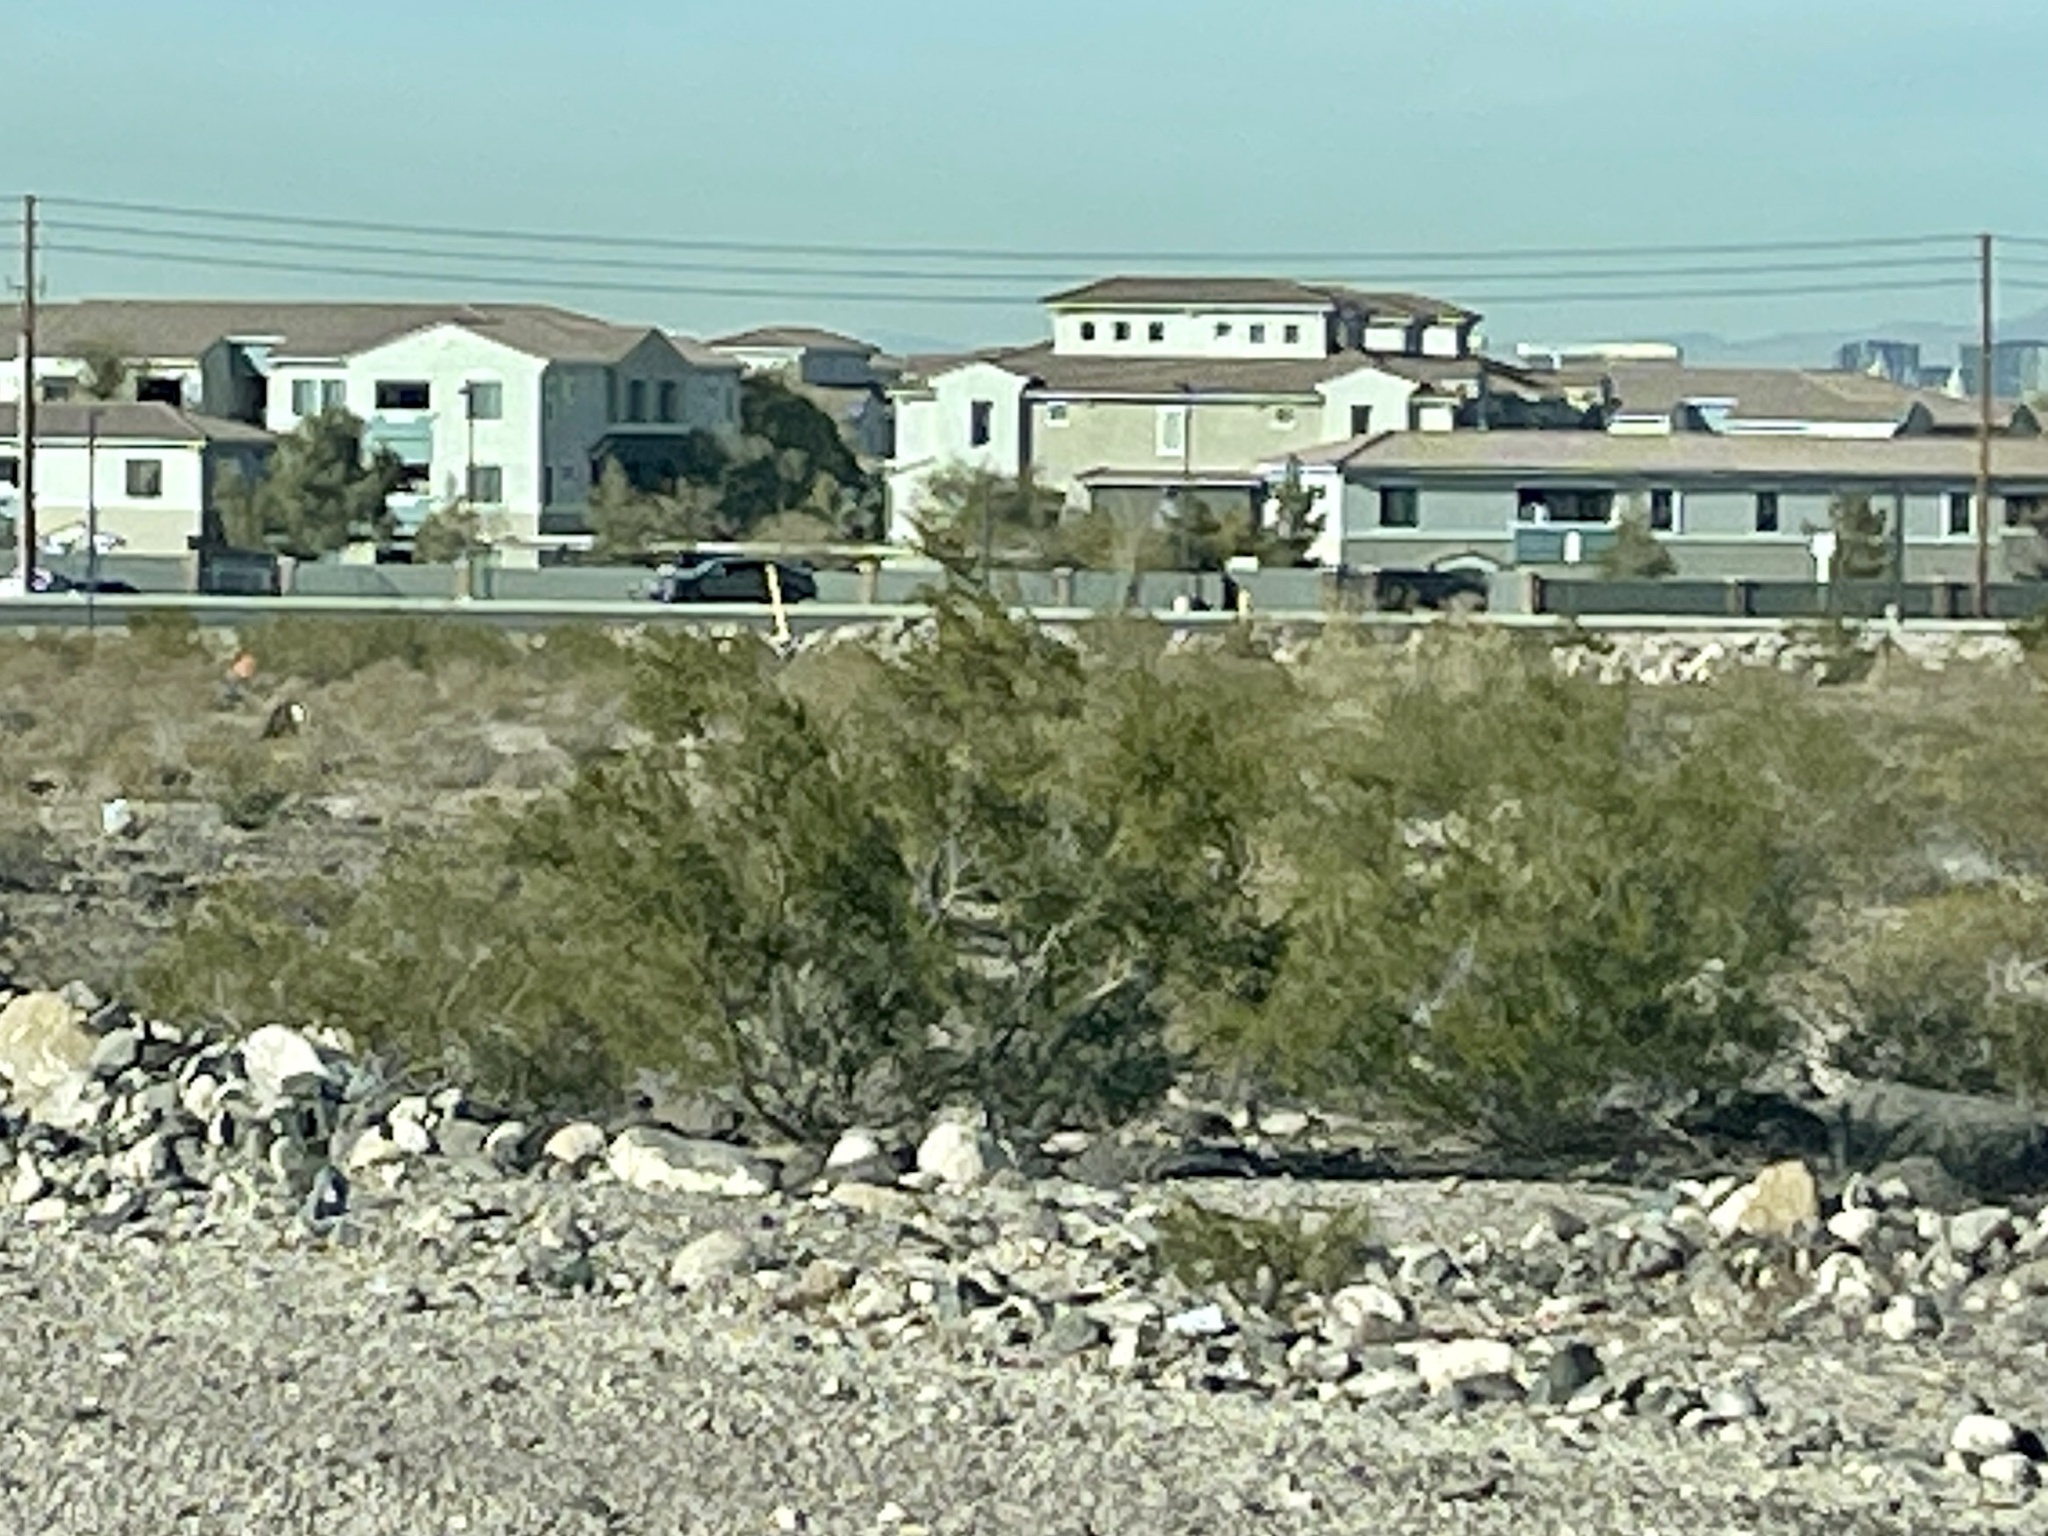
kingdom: Plantae
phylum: Tracheophyta
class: Magnoliopsida
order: Zygophyllales
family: Zygophyllaceae
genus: Larrea
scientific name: Larrea tridentata
